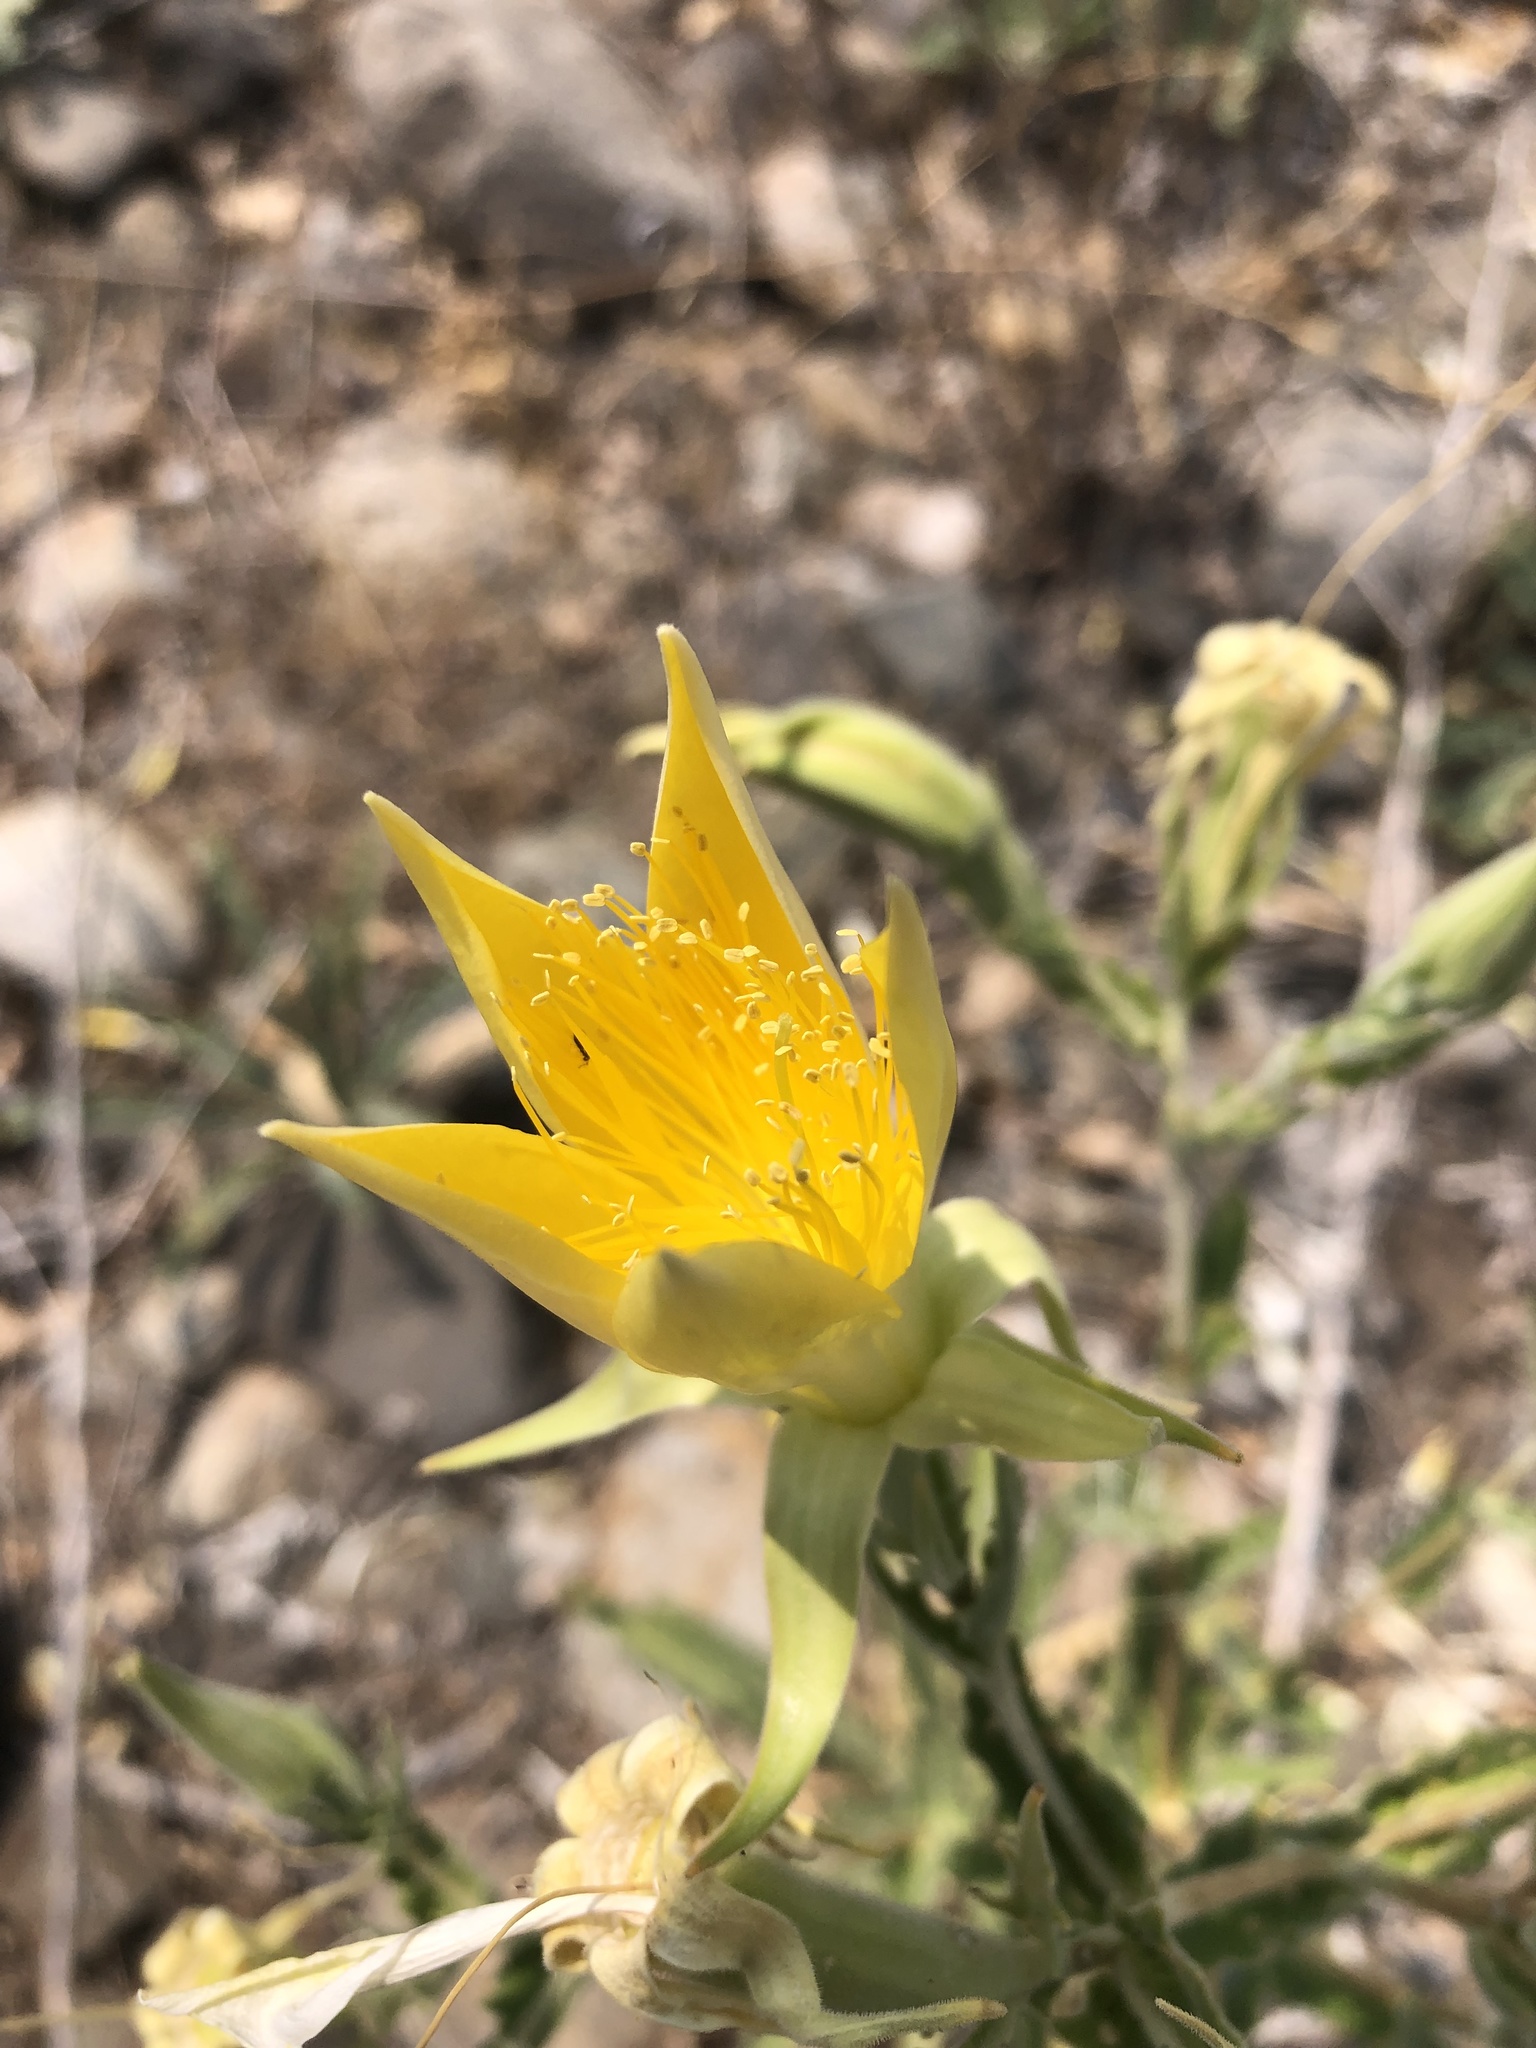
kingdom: Plantae
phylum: Tracheophyta
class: Magnoliopsida
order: Cornales
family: Loasaceae
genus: Mentzelia
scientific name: Mentzelia laevicaulis
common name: Smooth-stem blazingstar
